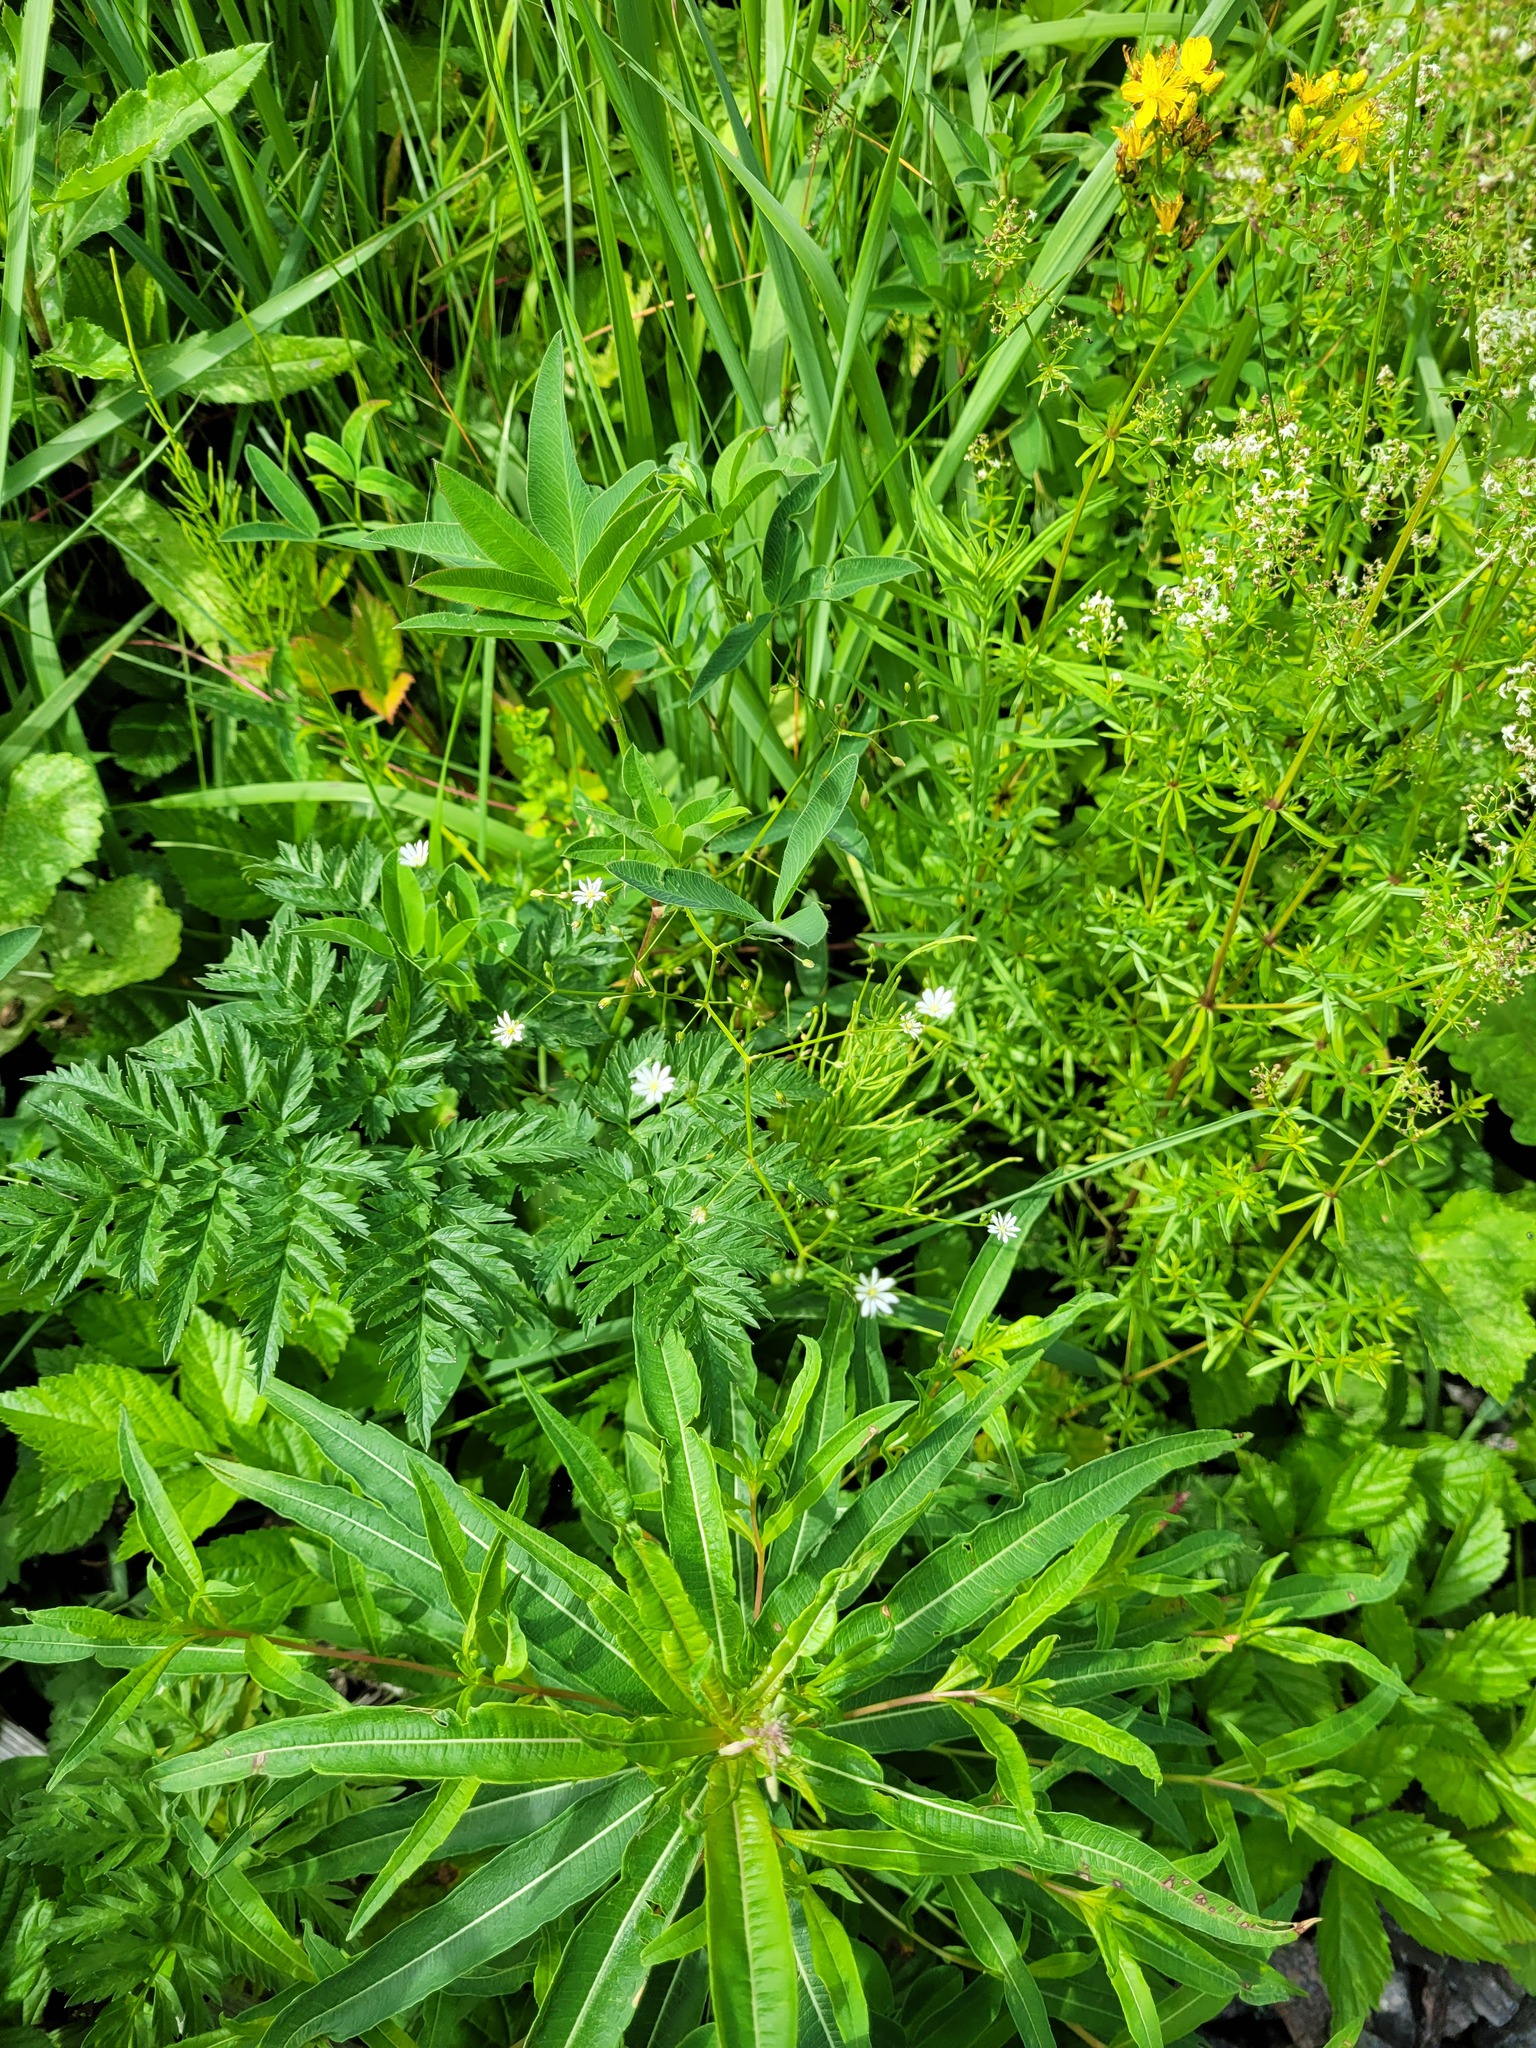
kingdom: Plantae
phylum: Tracheophyta
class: Magnoliopsida
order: Caryophyllales
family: Caryophyllaceae
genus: Stellaria
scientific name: Stellaria graminea
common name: Grass-like starwort
